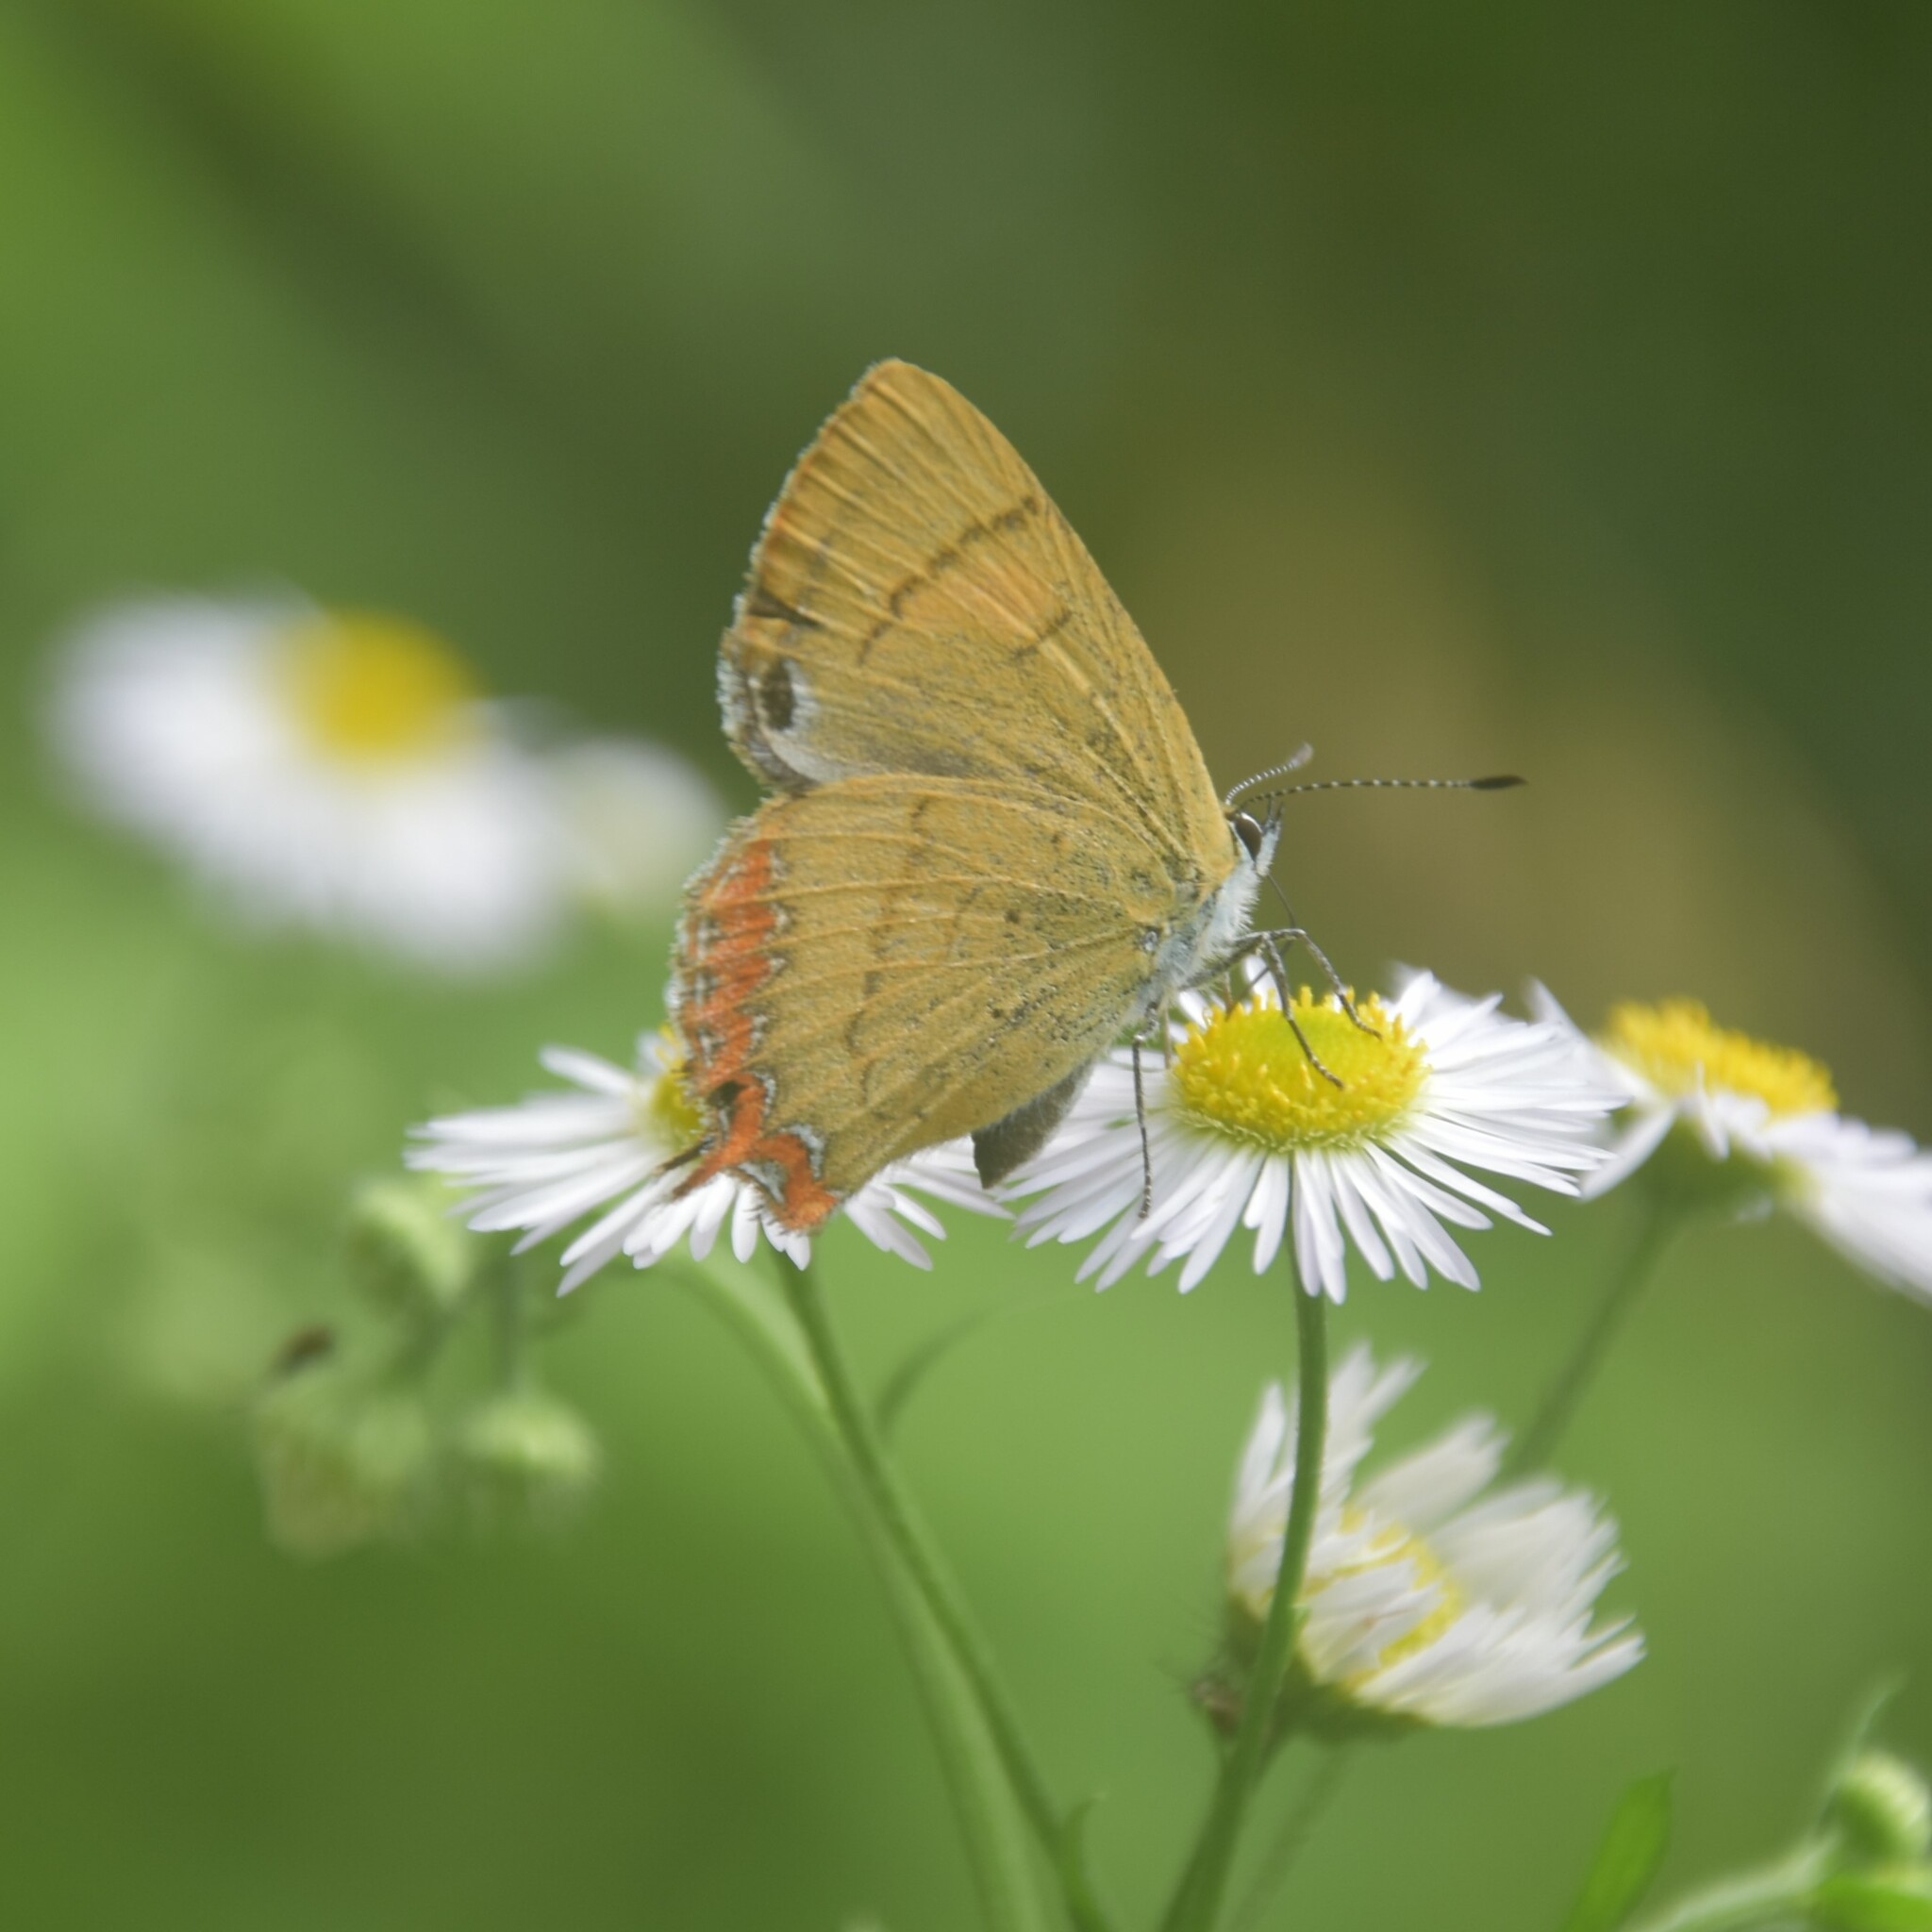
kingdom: Animalia
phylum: Arthropoda
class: Insecta
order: Lepidoptera
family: Lycaenidae
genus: Heliophorus
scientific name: Heliophorus
